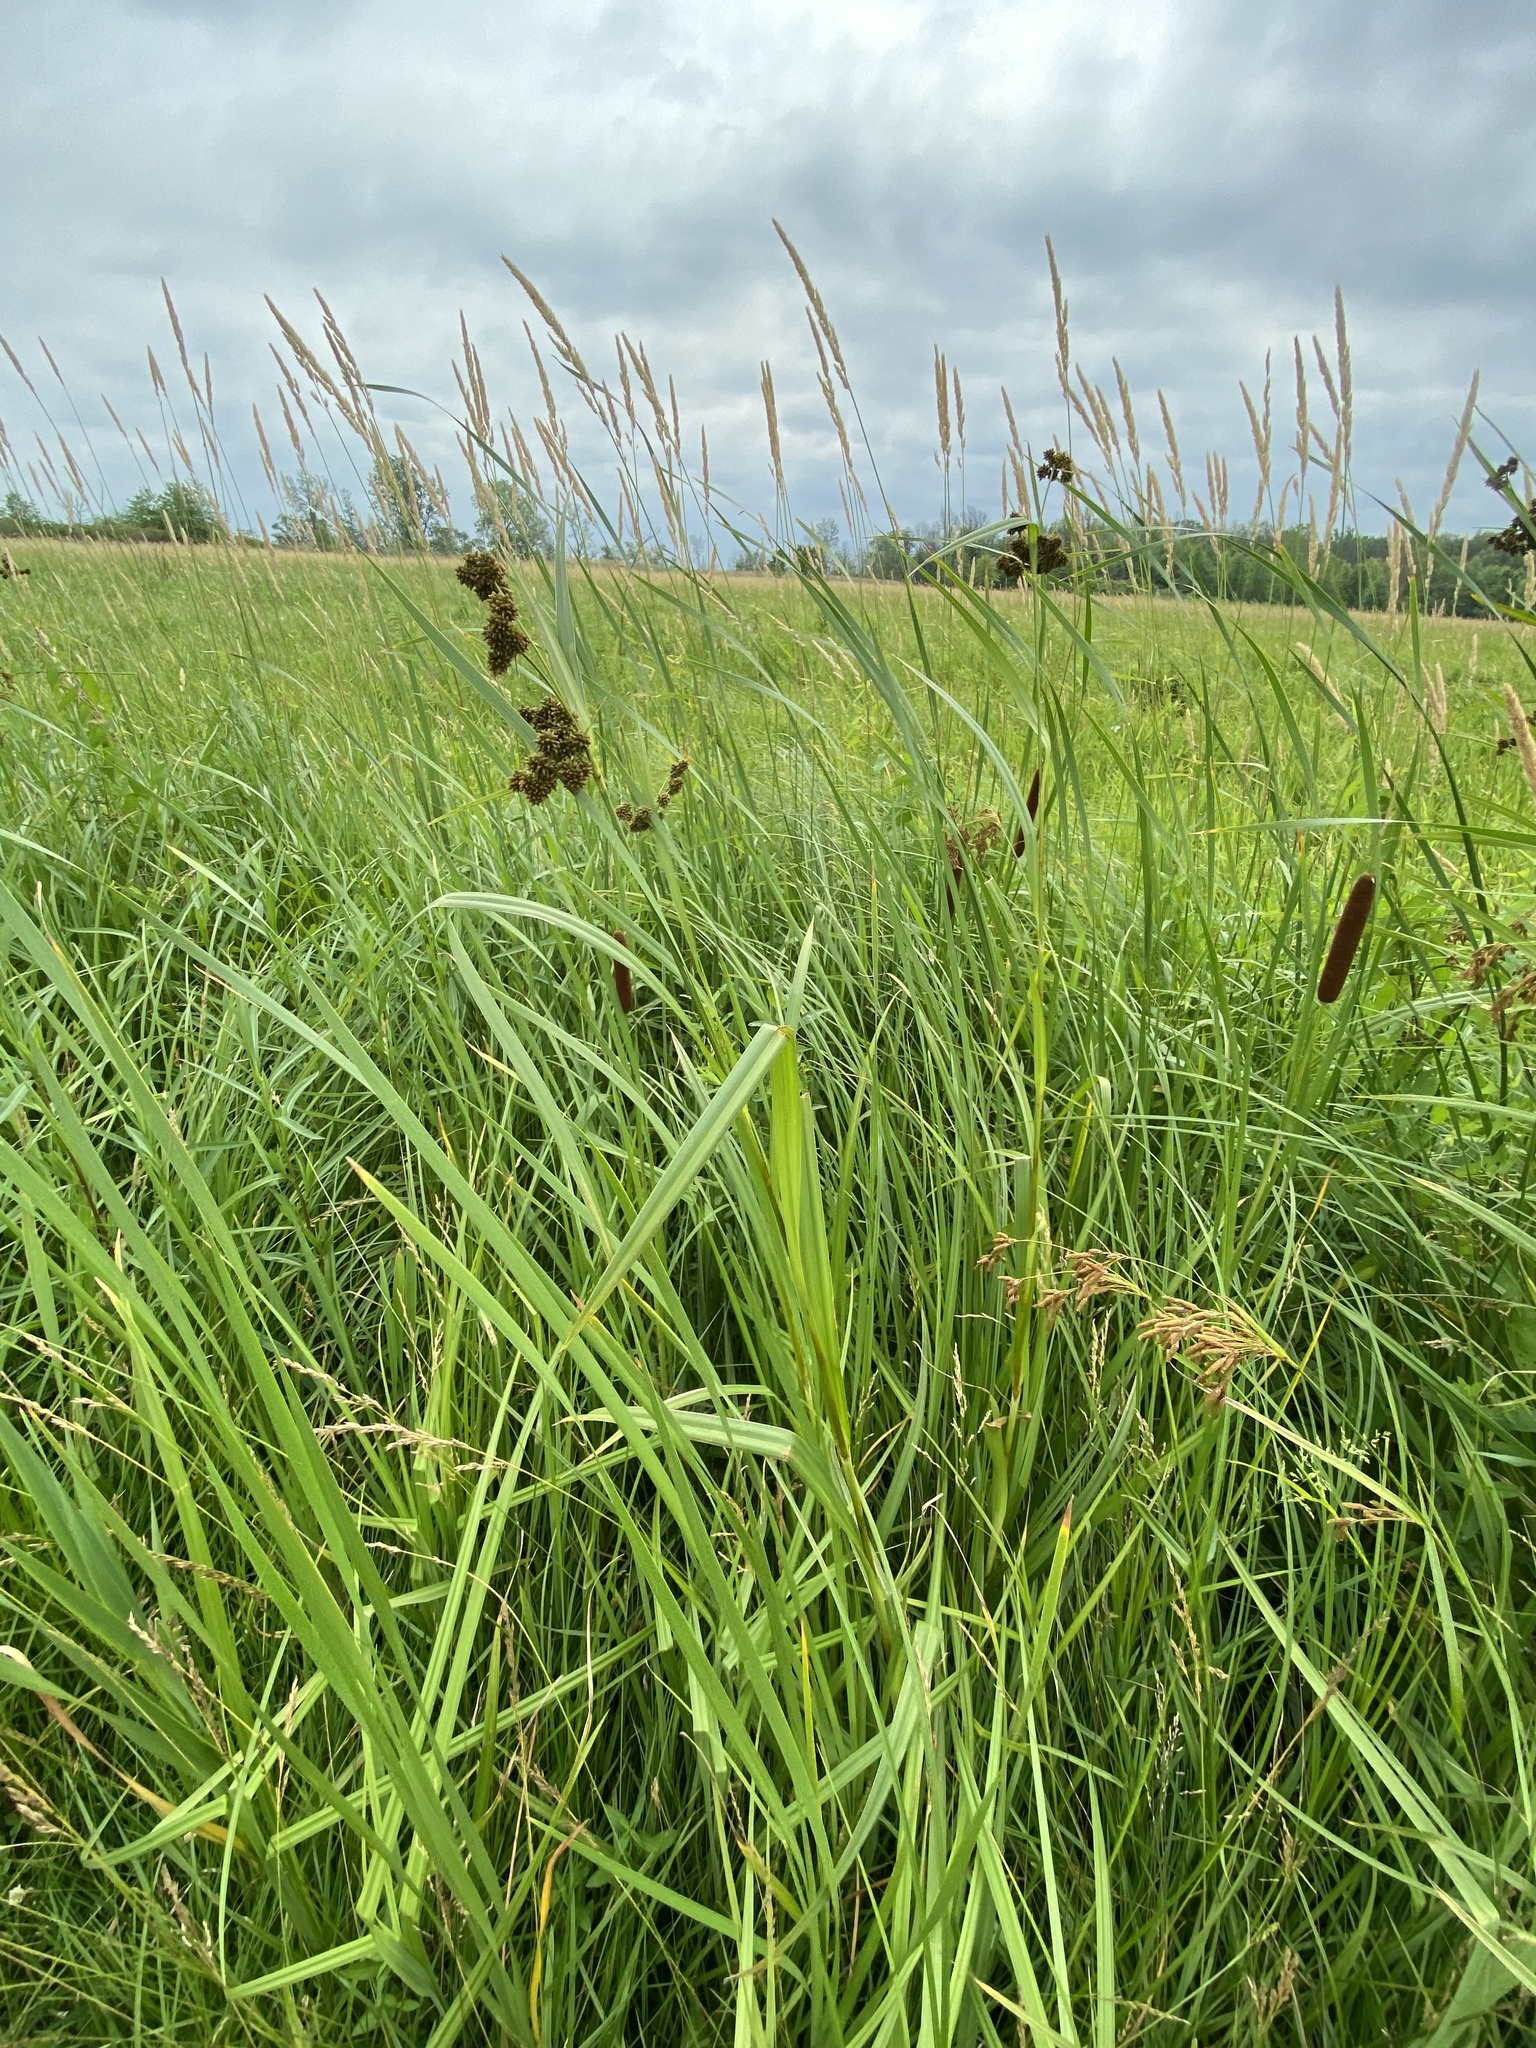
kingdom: Plantae
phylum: Tracheophyta
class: Liliopsida
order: Poales
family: Cyperaceae
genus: Scirpus
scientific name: Scirpus atrovirens
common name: Black bulrush
